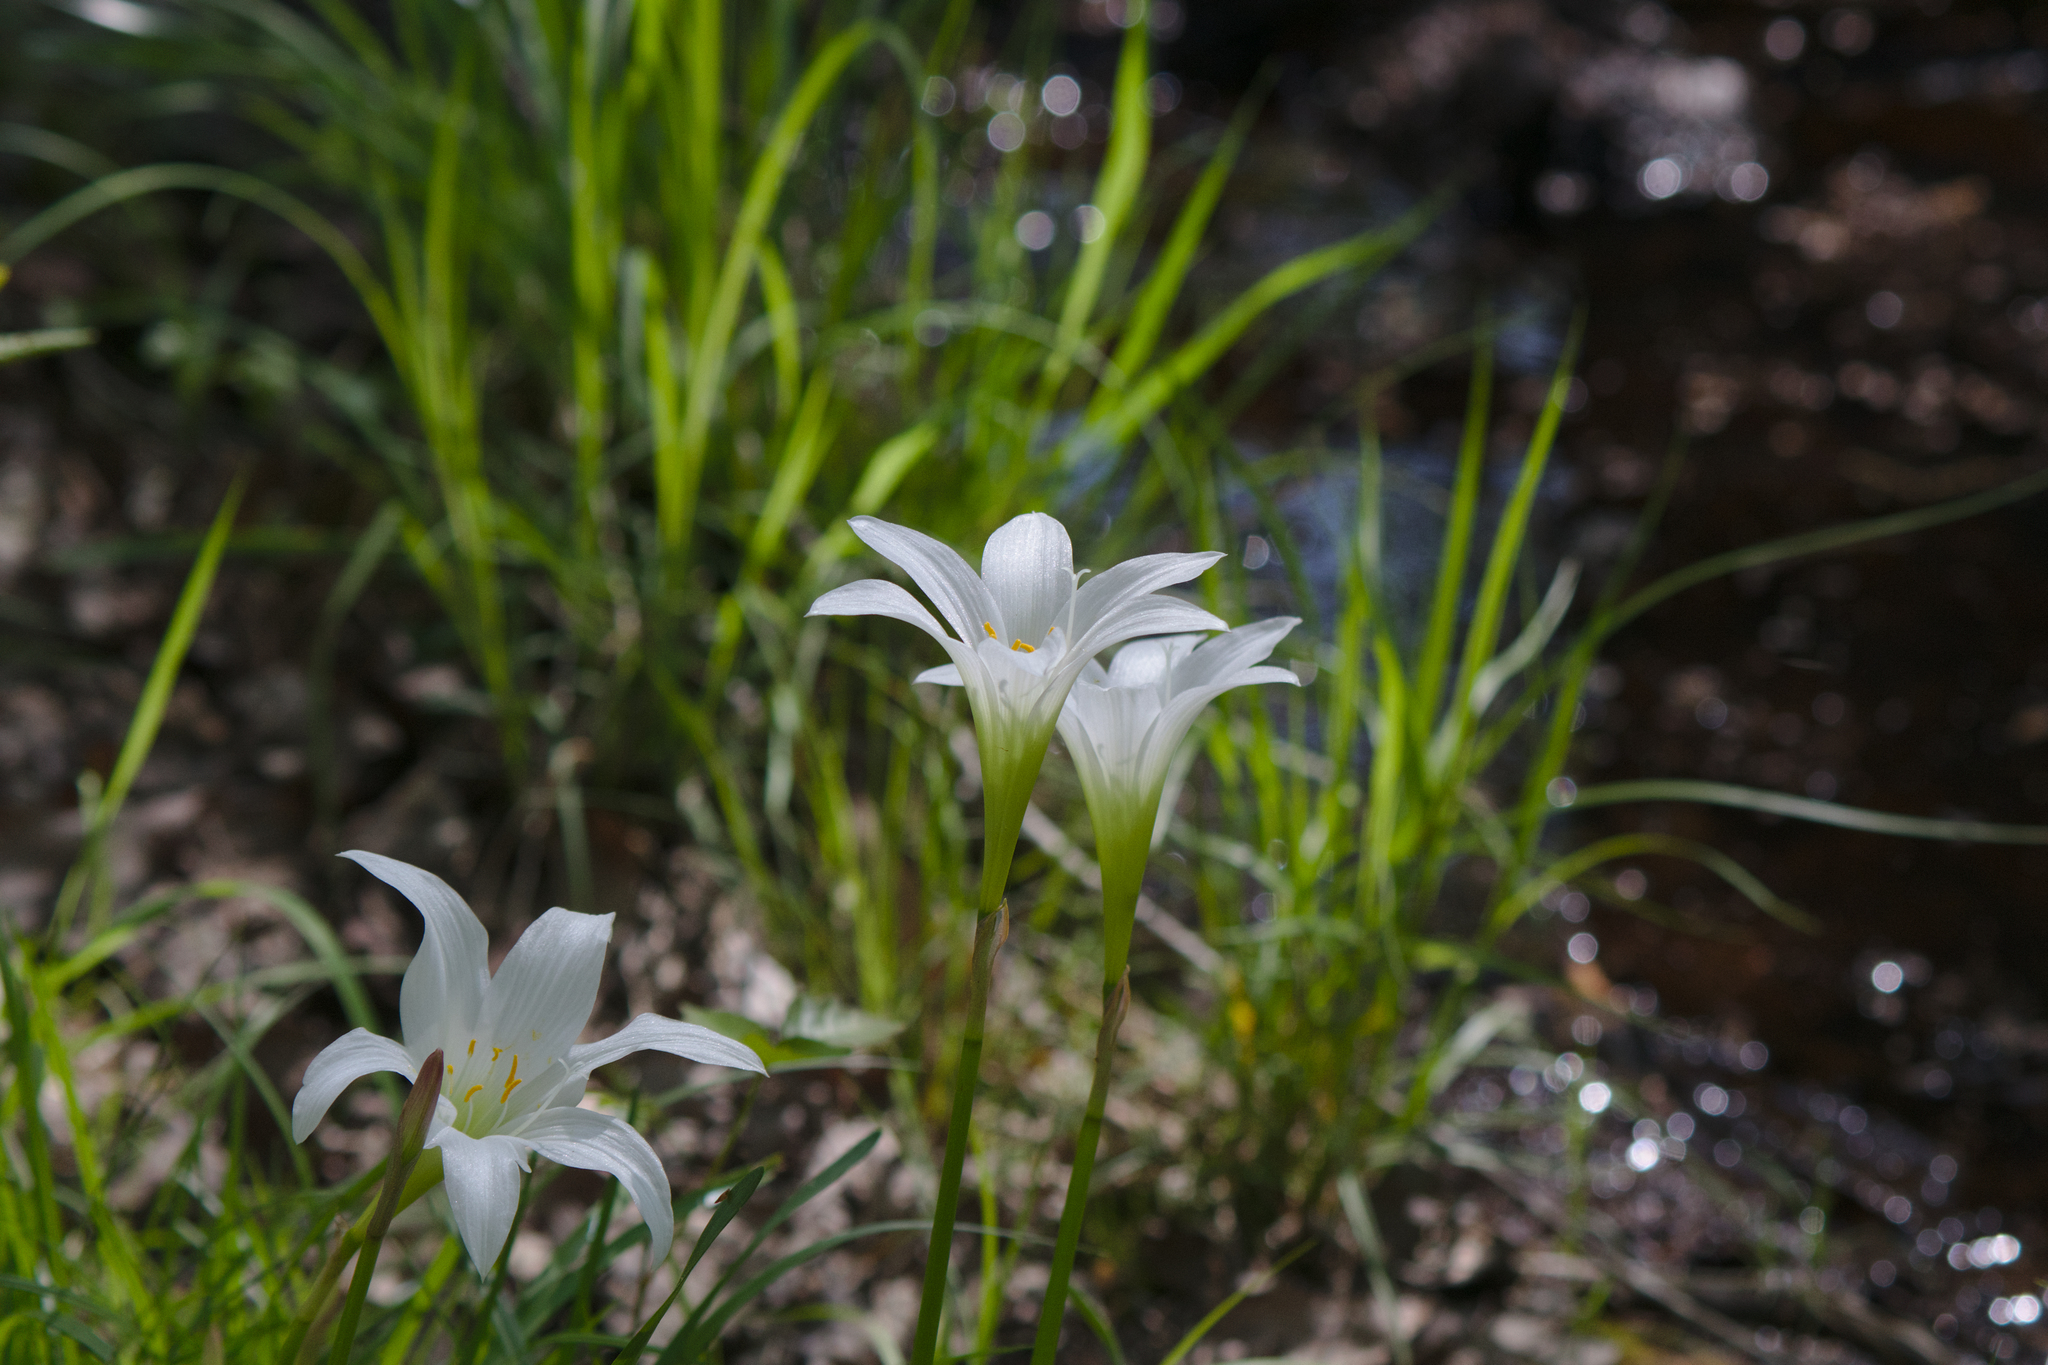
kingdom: Plantae
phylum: Tracheophyta
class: Liliopsida
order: Asparagales
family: Amaryllidaceae
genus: Zephyranthes
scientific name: Zephyranthes atamasco
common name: Atamasco lily
